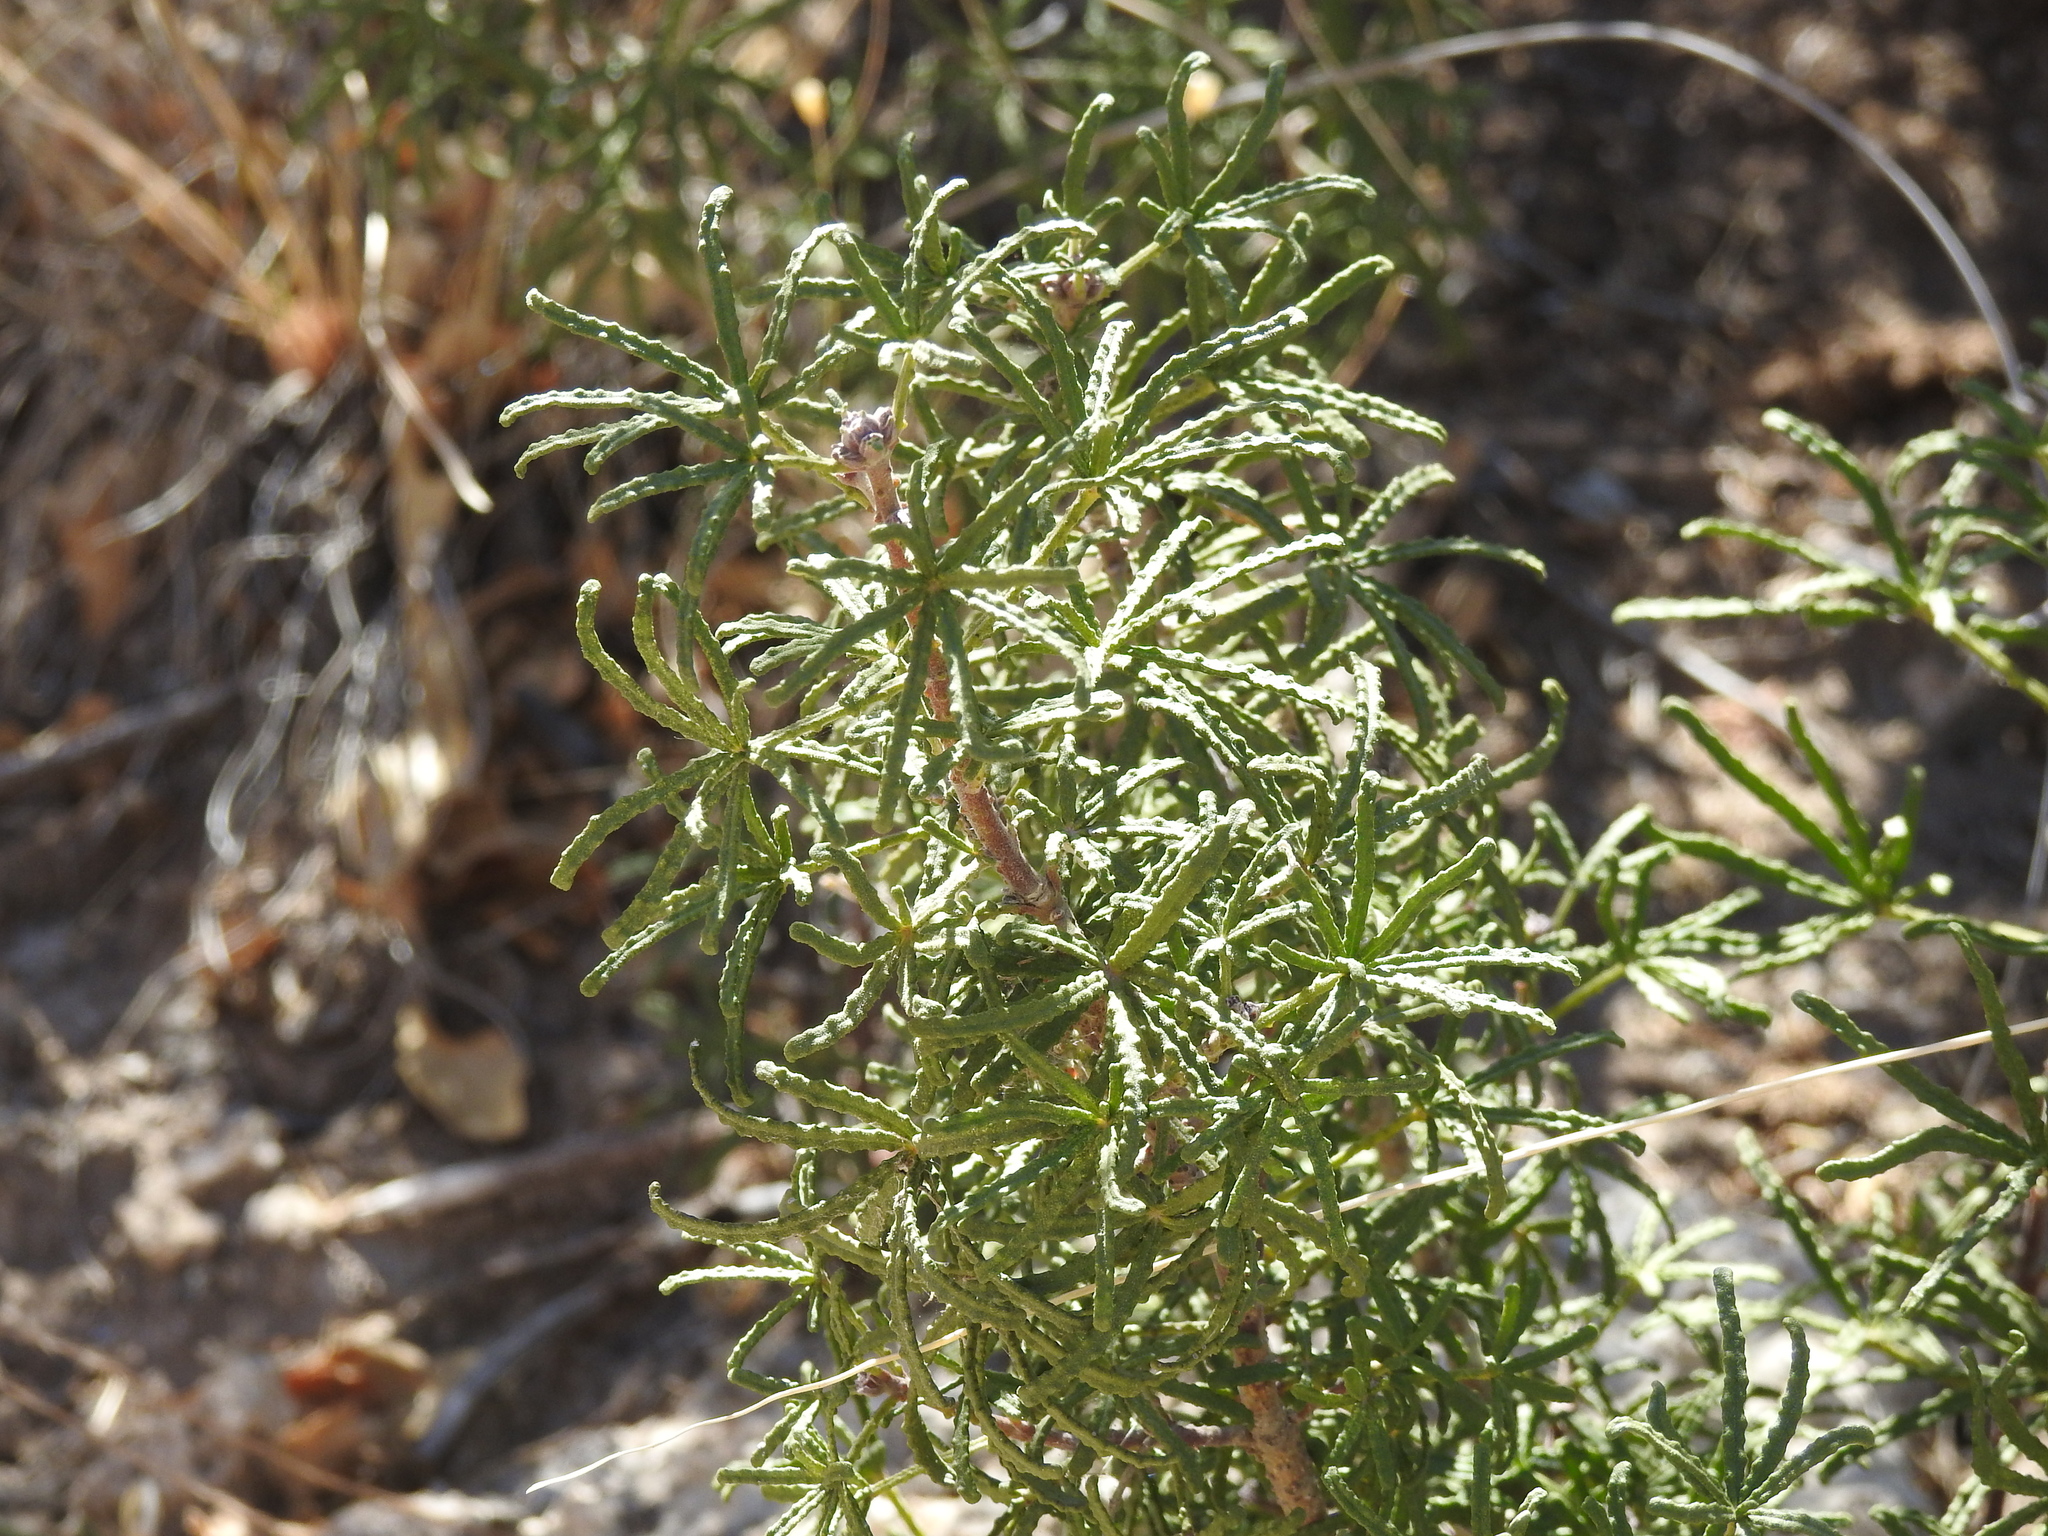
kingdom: Plantae
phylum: Tracheophyta
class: Magnoliopsida
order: Sapindales
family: Rutaceae
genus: Choisya
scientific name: Choisya dumosa
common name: Mexican-orange
